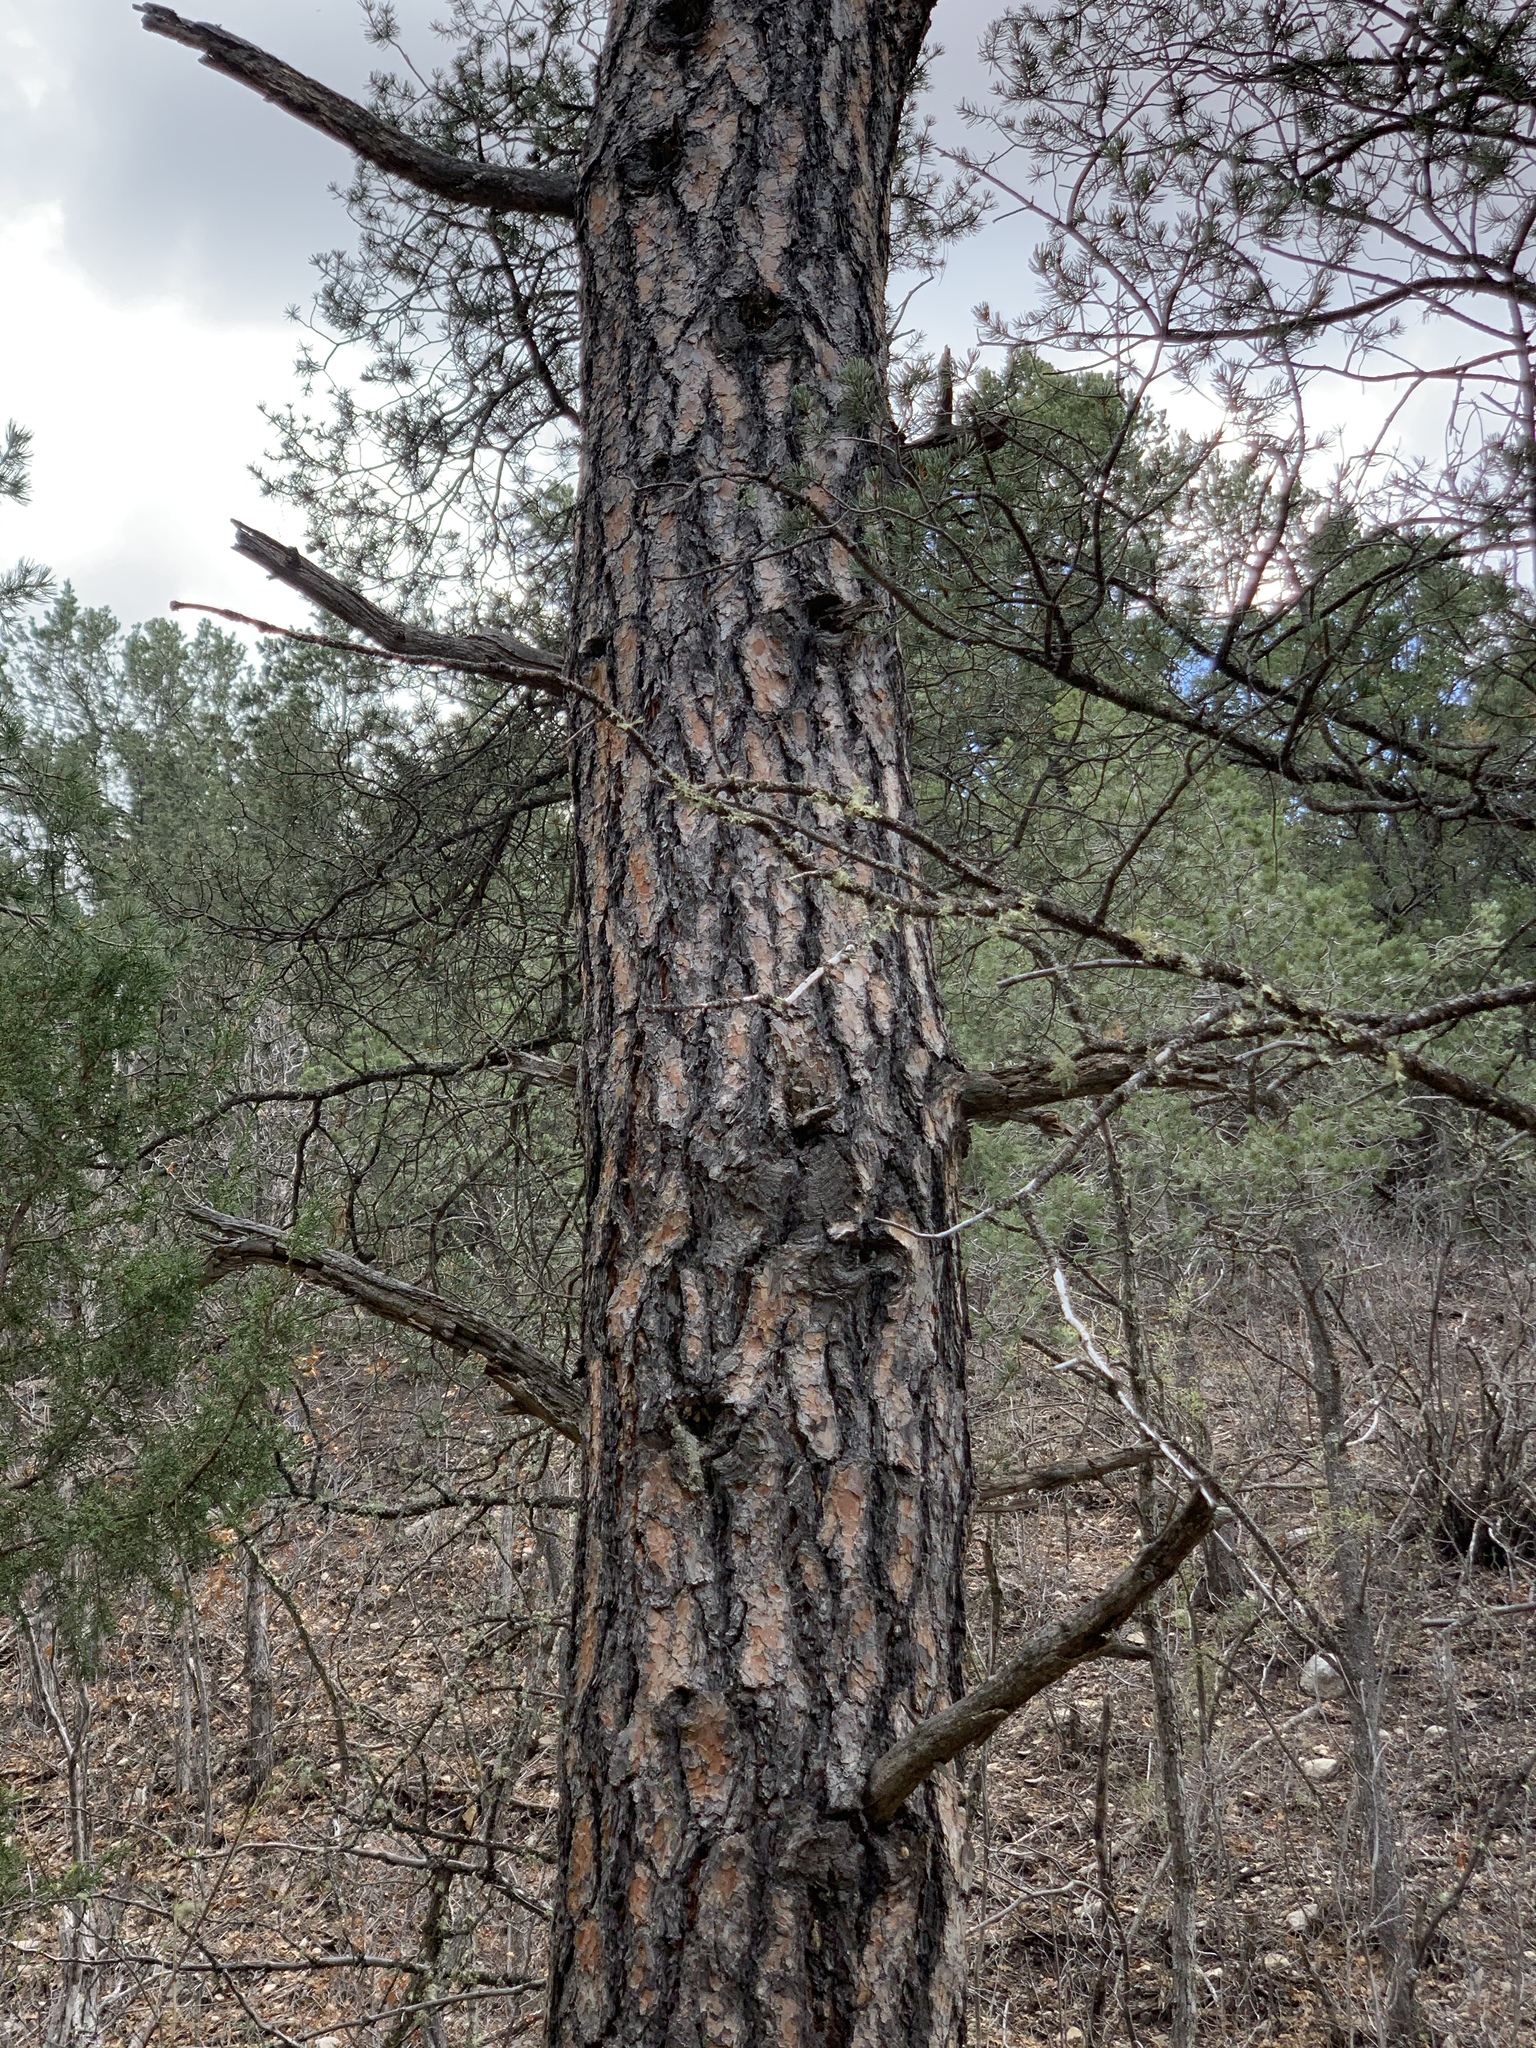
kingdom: Plantae
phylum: Tracheophyta
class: Pinopsida
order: Pinales
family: Pinaceae
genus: Pinus
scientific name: Pinus ponderosa
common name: Western yellow-pine
